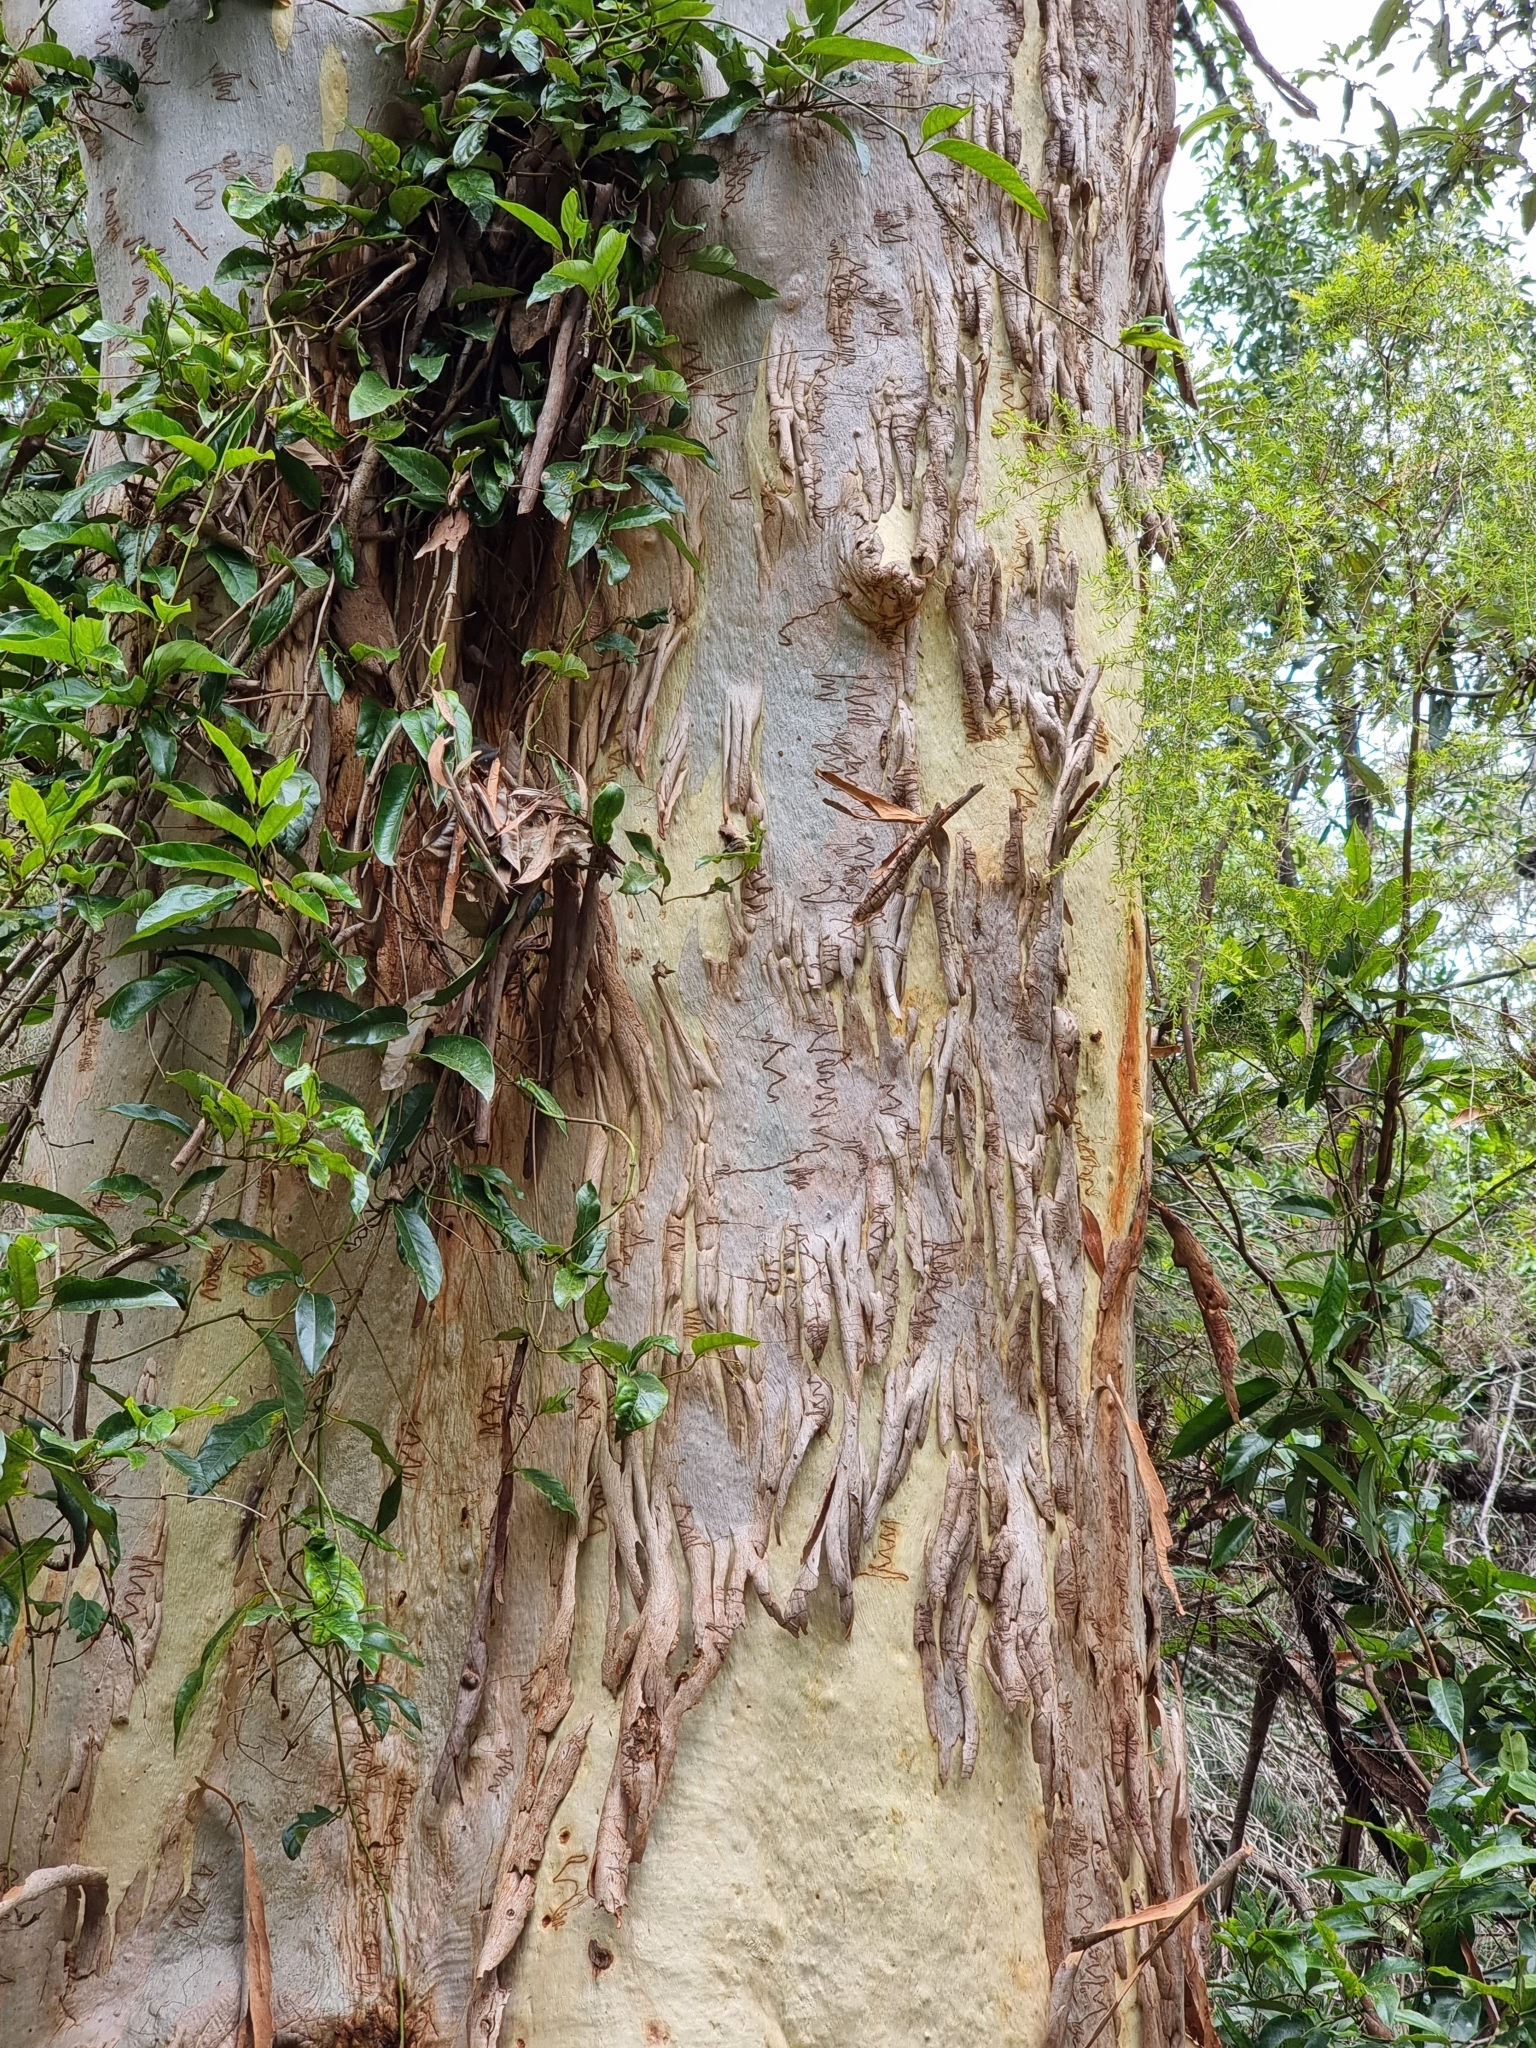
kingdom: Plantae
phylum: Tracheophyta
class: Magnoliopsida
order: Myrtales
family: Myrtaceae
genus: Eucalyptus
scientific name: Eucalyptus racemosa
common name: Scribbly gum
